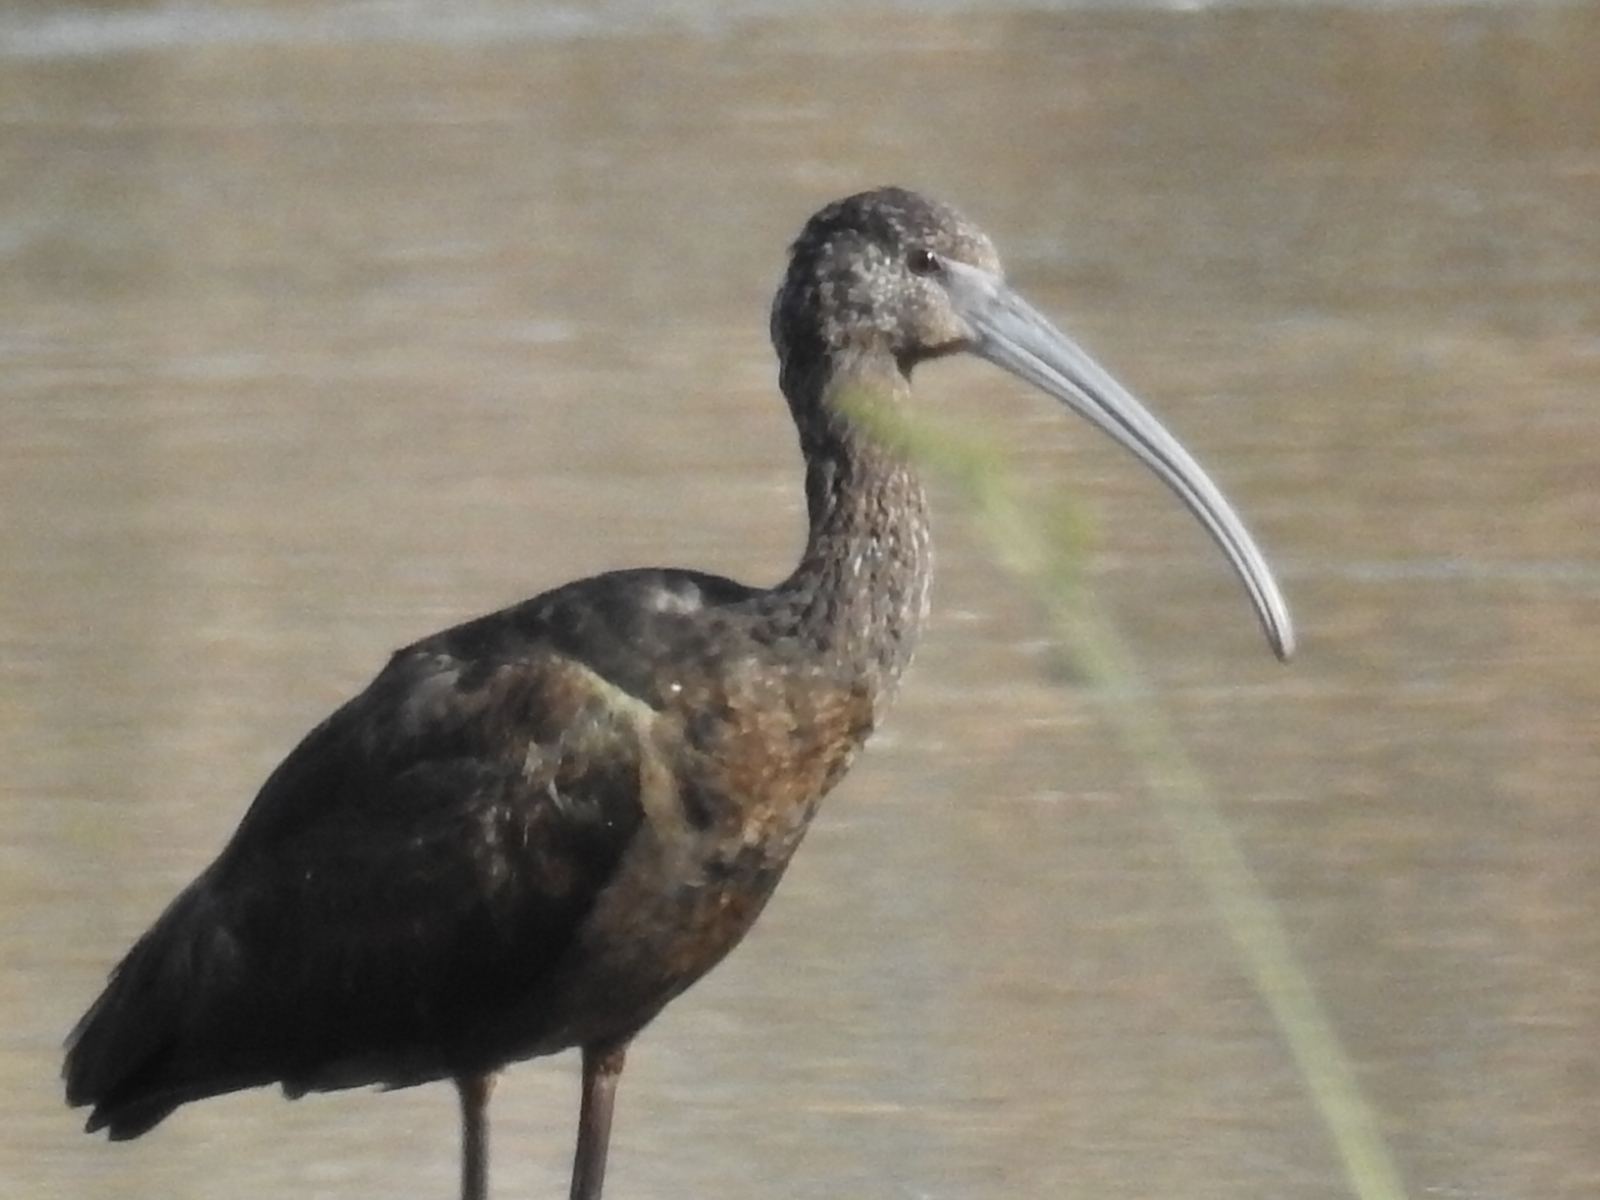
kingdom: Animalia
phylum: Chordata
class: Aves
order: Pelecaniformes
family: Threskiornithidae
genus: Plegadis
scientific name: Plegadis chihi
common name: White-faced ibis
